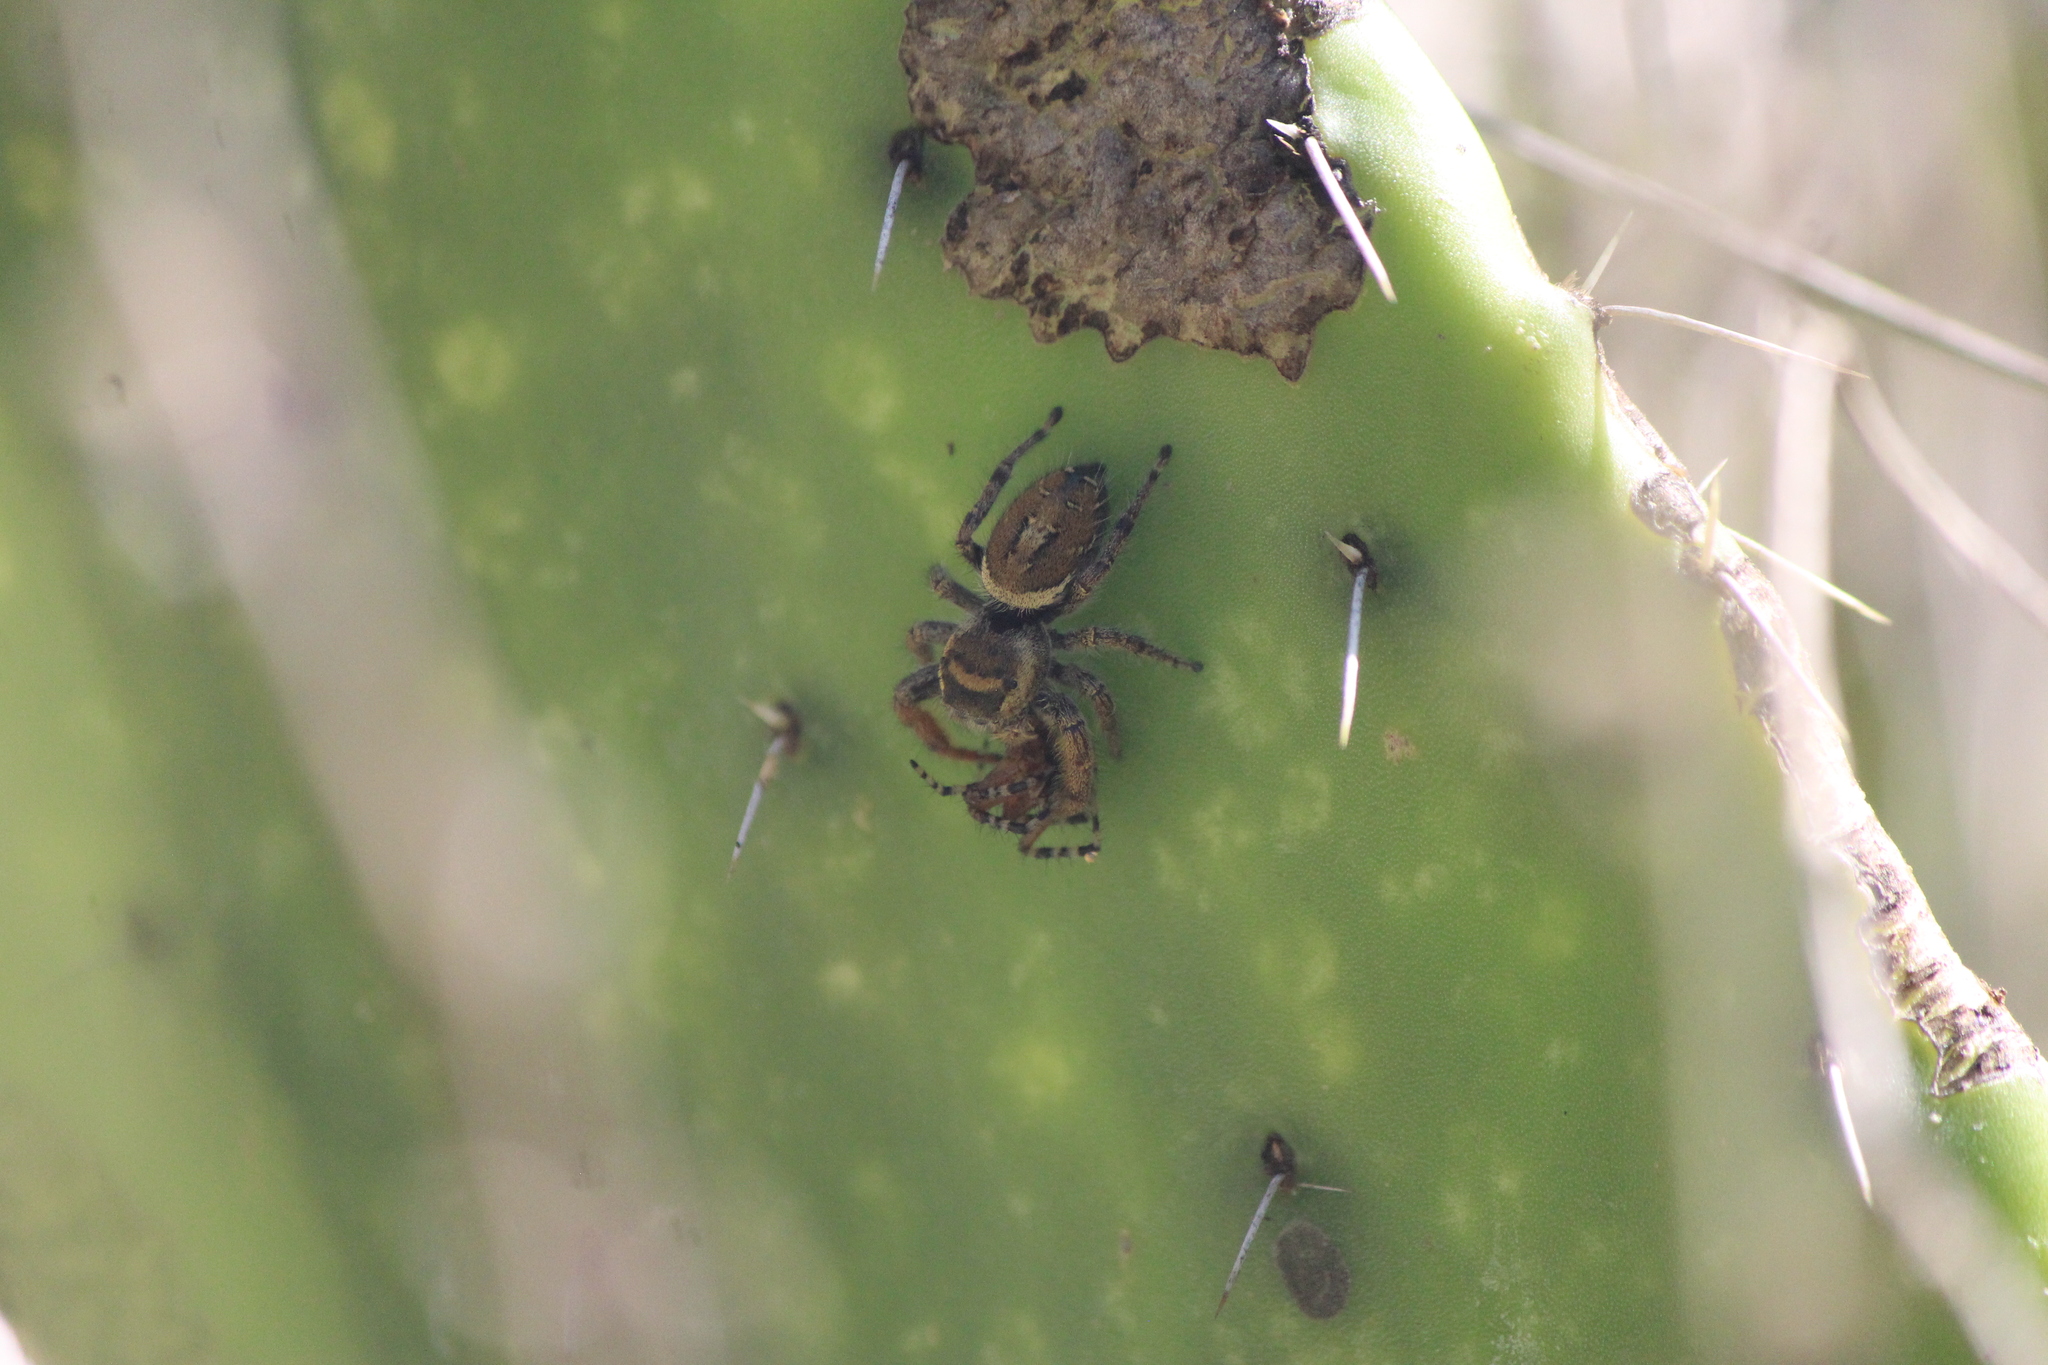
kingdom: Animalia
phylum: Arthropoda
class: Arachnida
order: Araneae
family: Salticidae
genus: Phidippus
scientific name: Phidippus arizonensis
